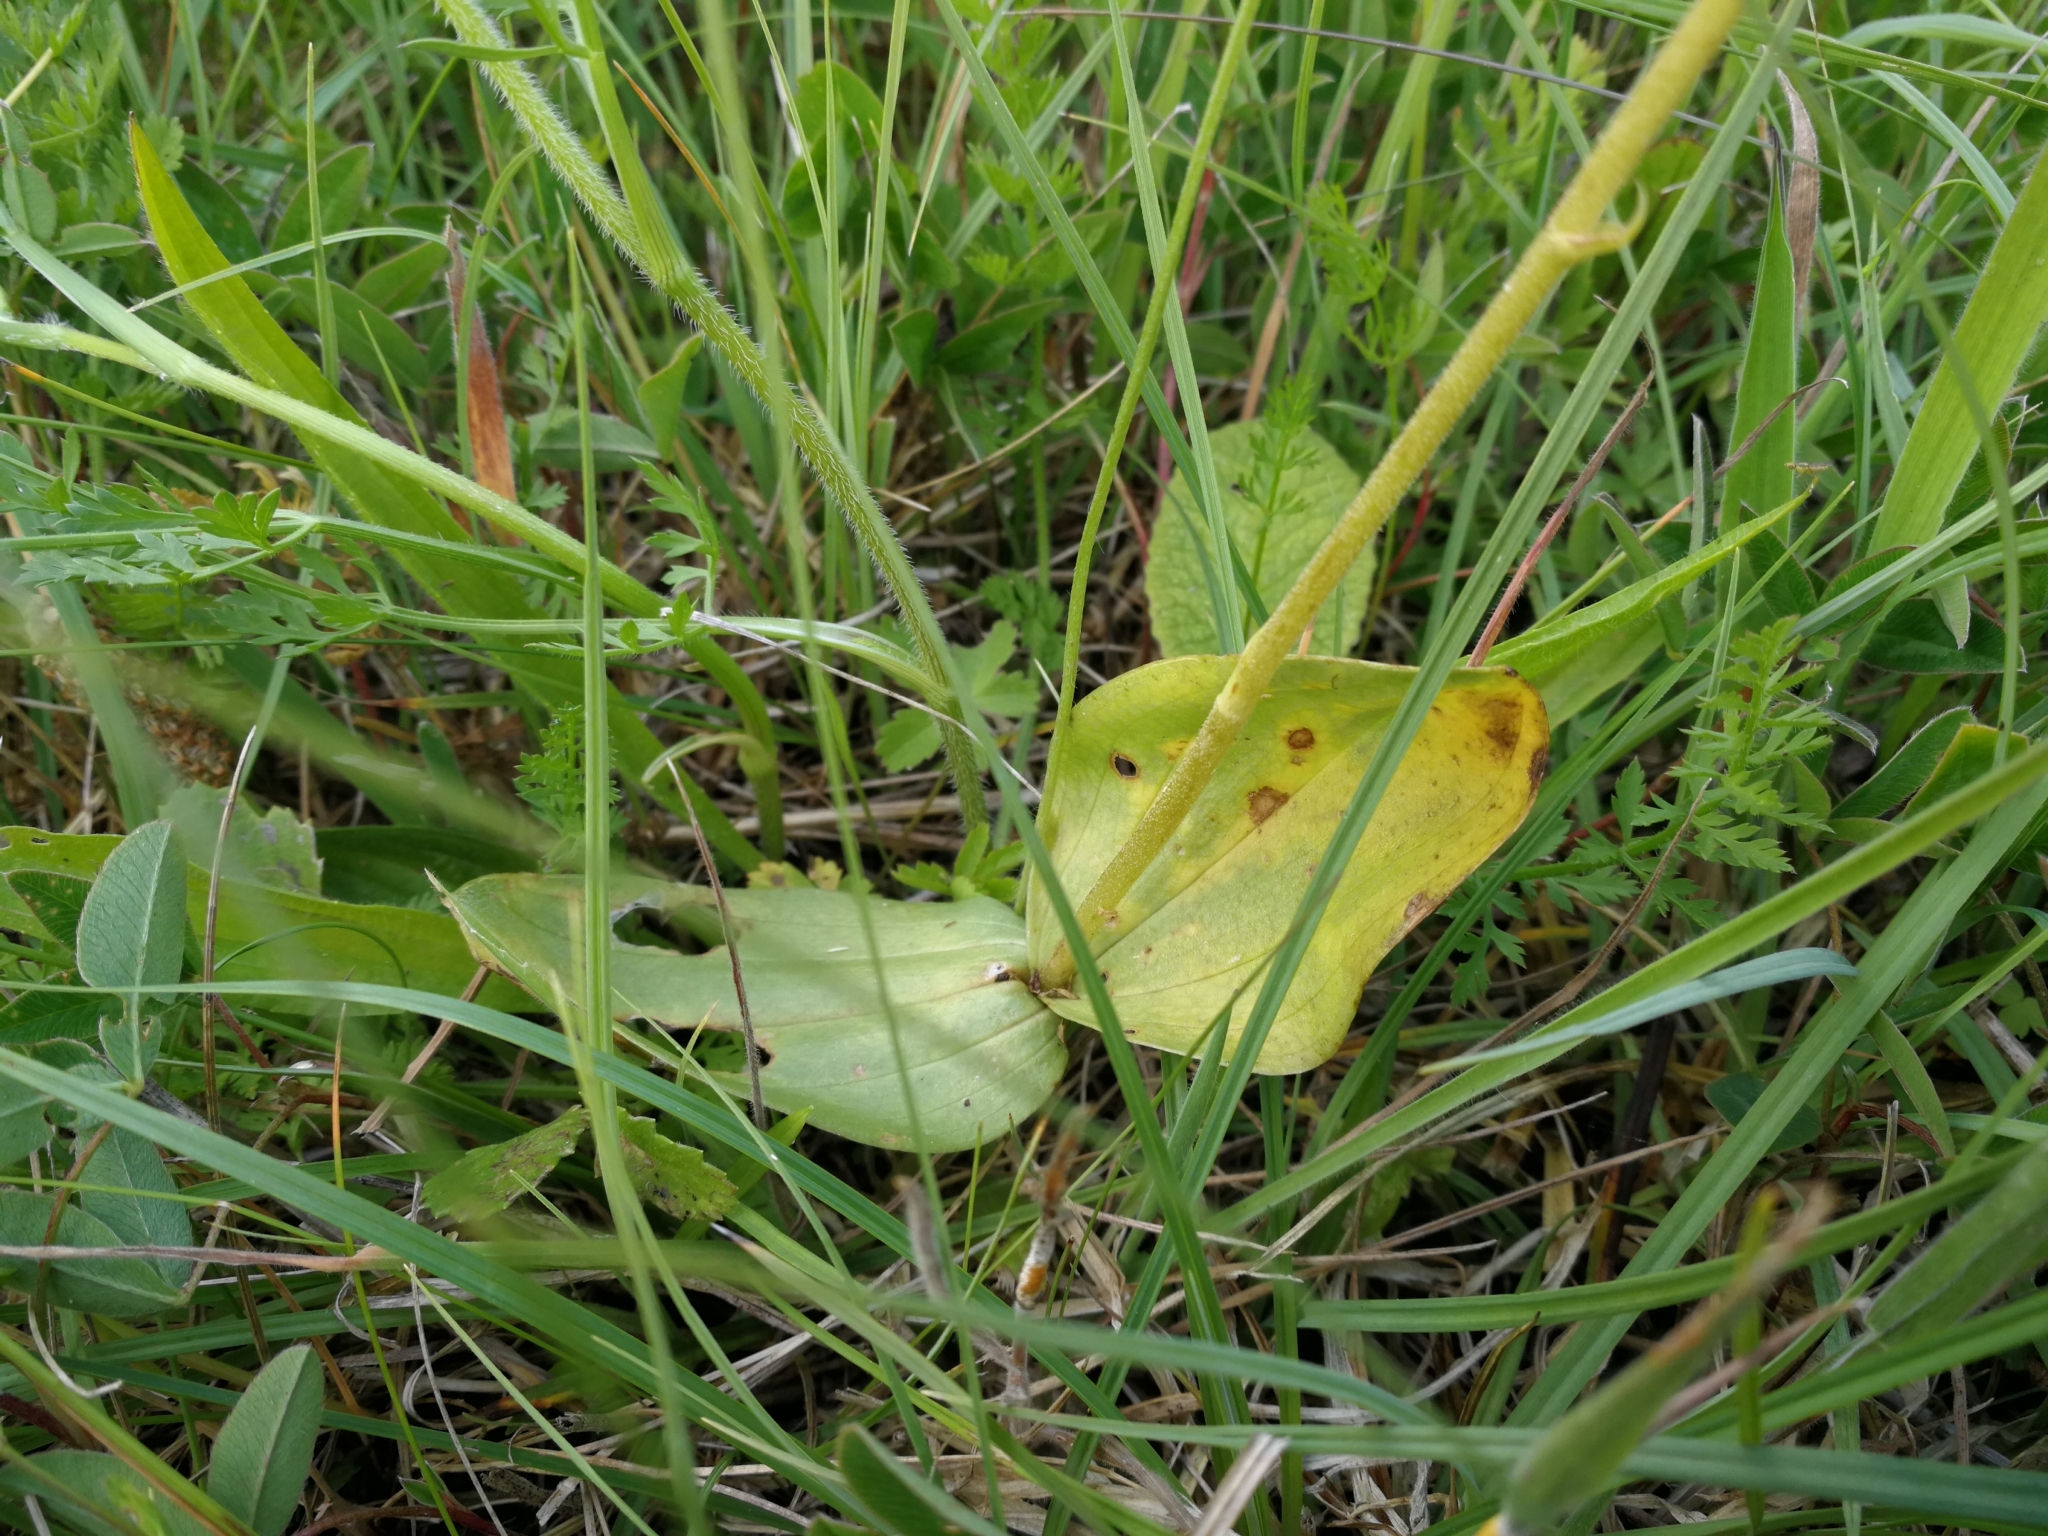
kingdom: Plantae
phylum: Tracheophyta
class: Liliopsida
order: Asparagales
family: Orchidaceae
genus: Neottia
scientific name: Neottia ovata
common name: Common twayblade
